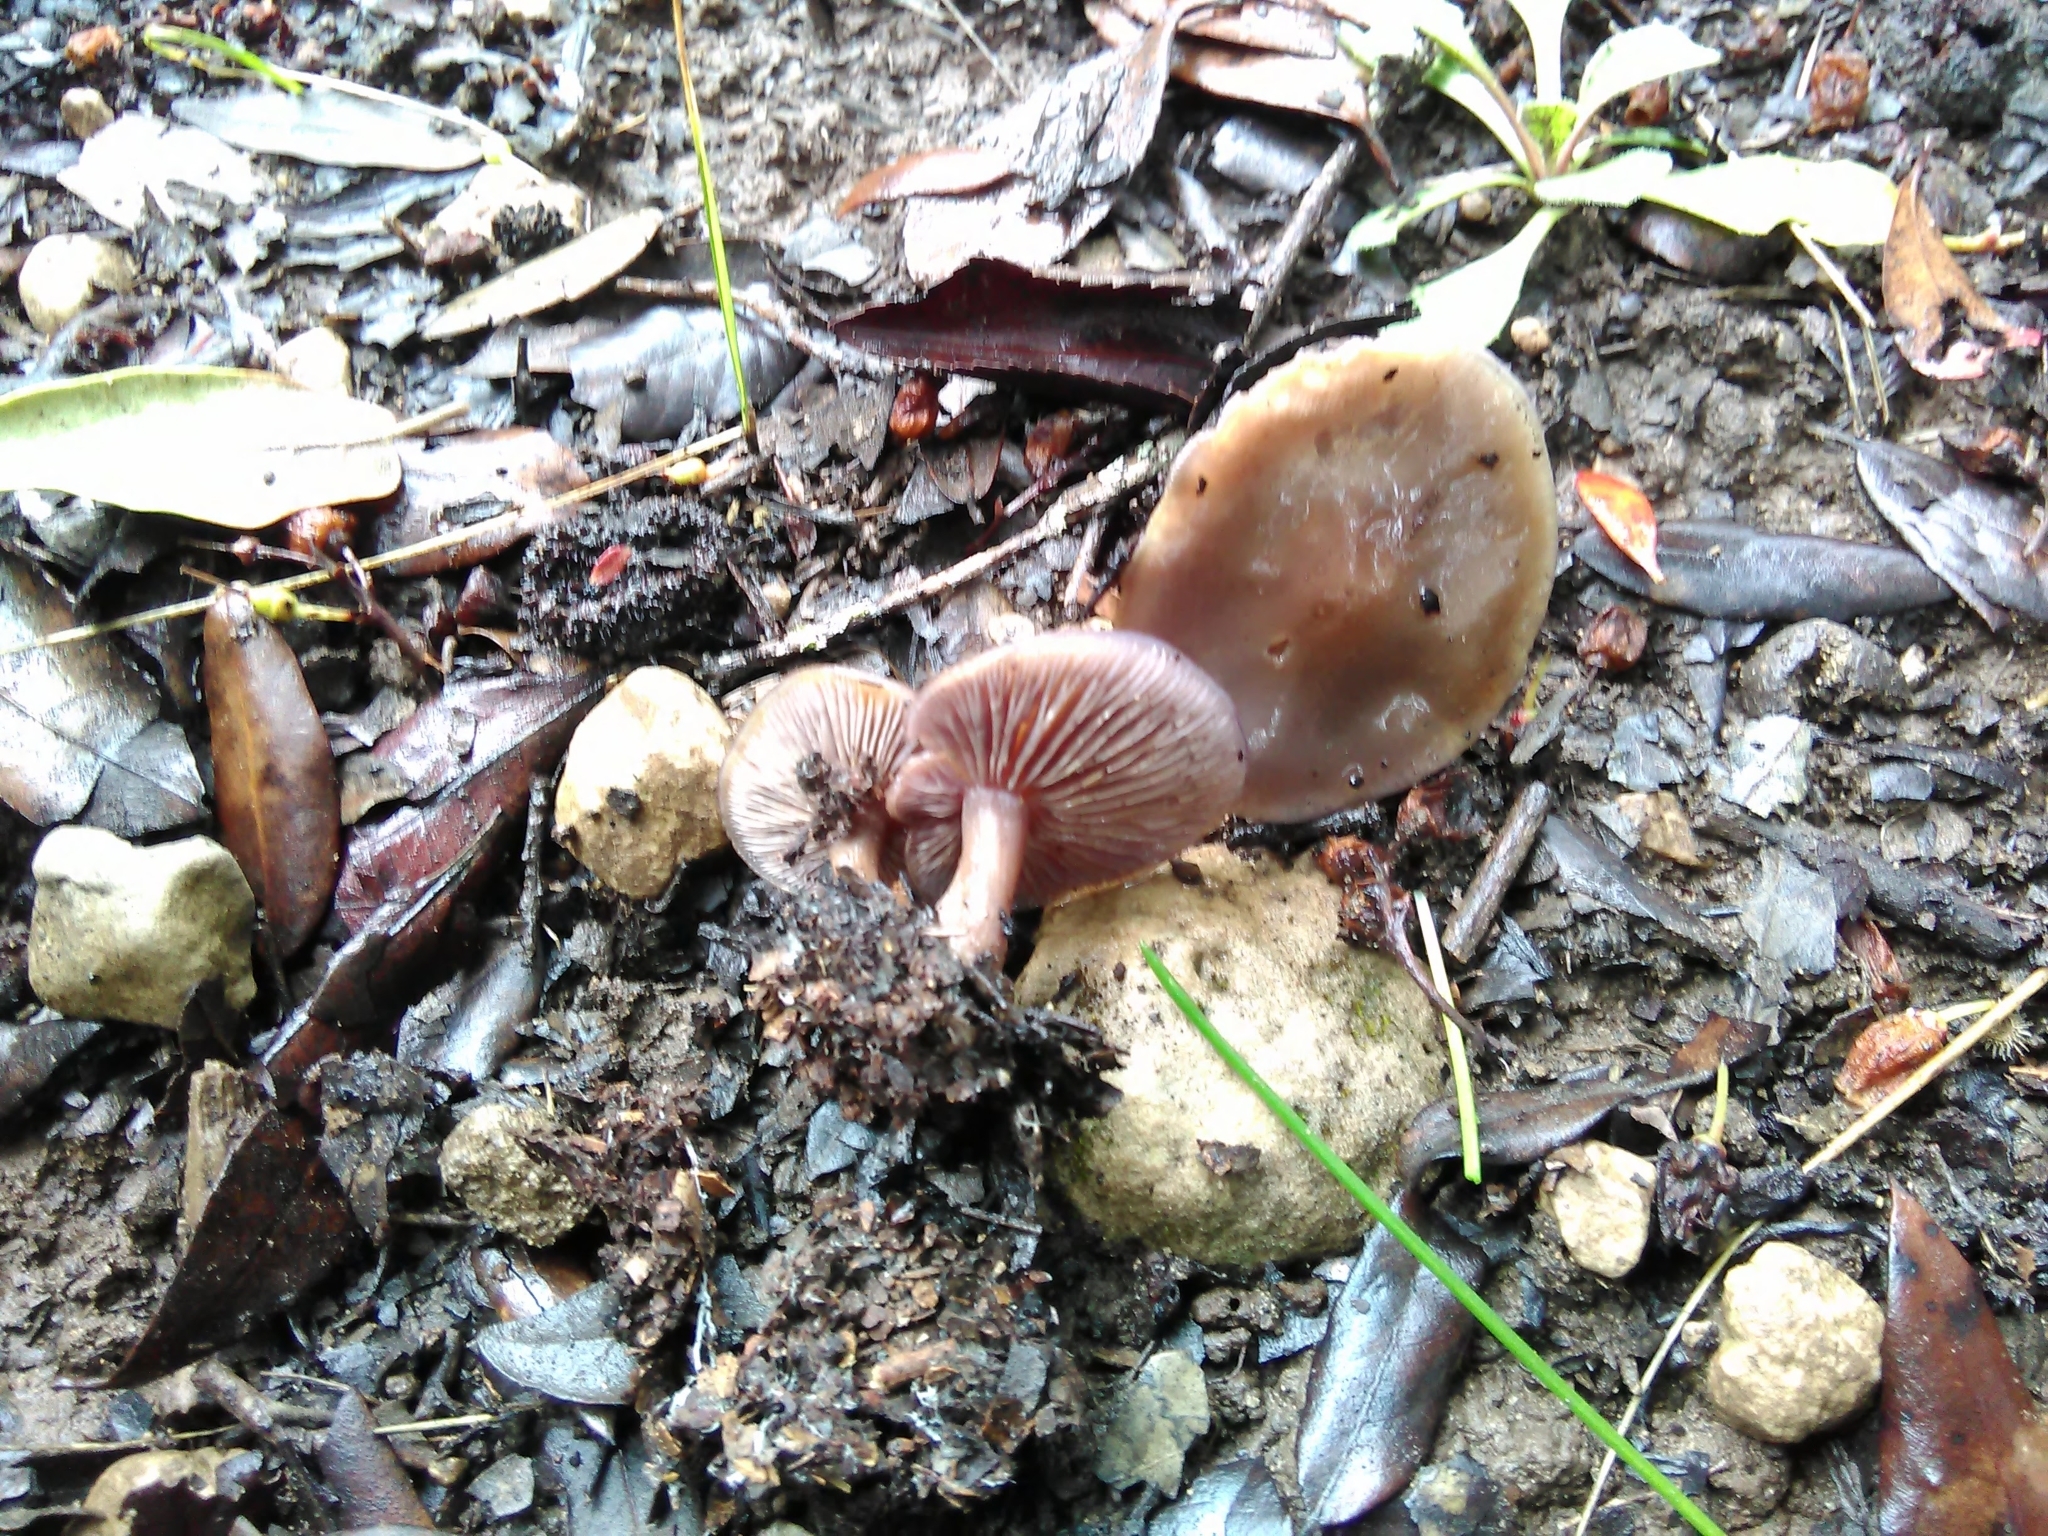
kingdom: Fungi
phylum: Basidiomycota
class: Agaricomycetes
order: Agaricales
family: Tricholomataceae
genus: Collybia
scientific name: Collybia
